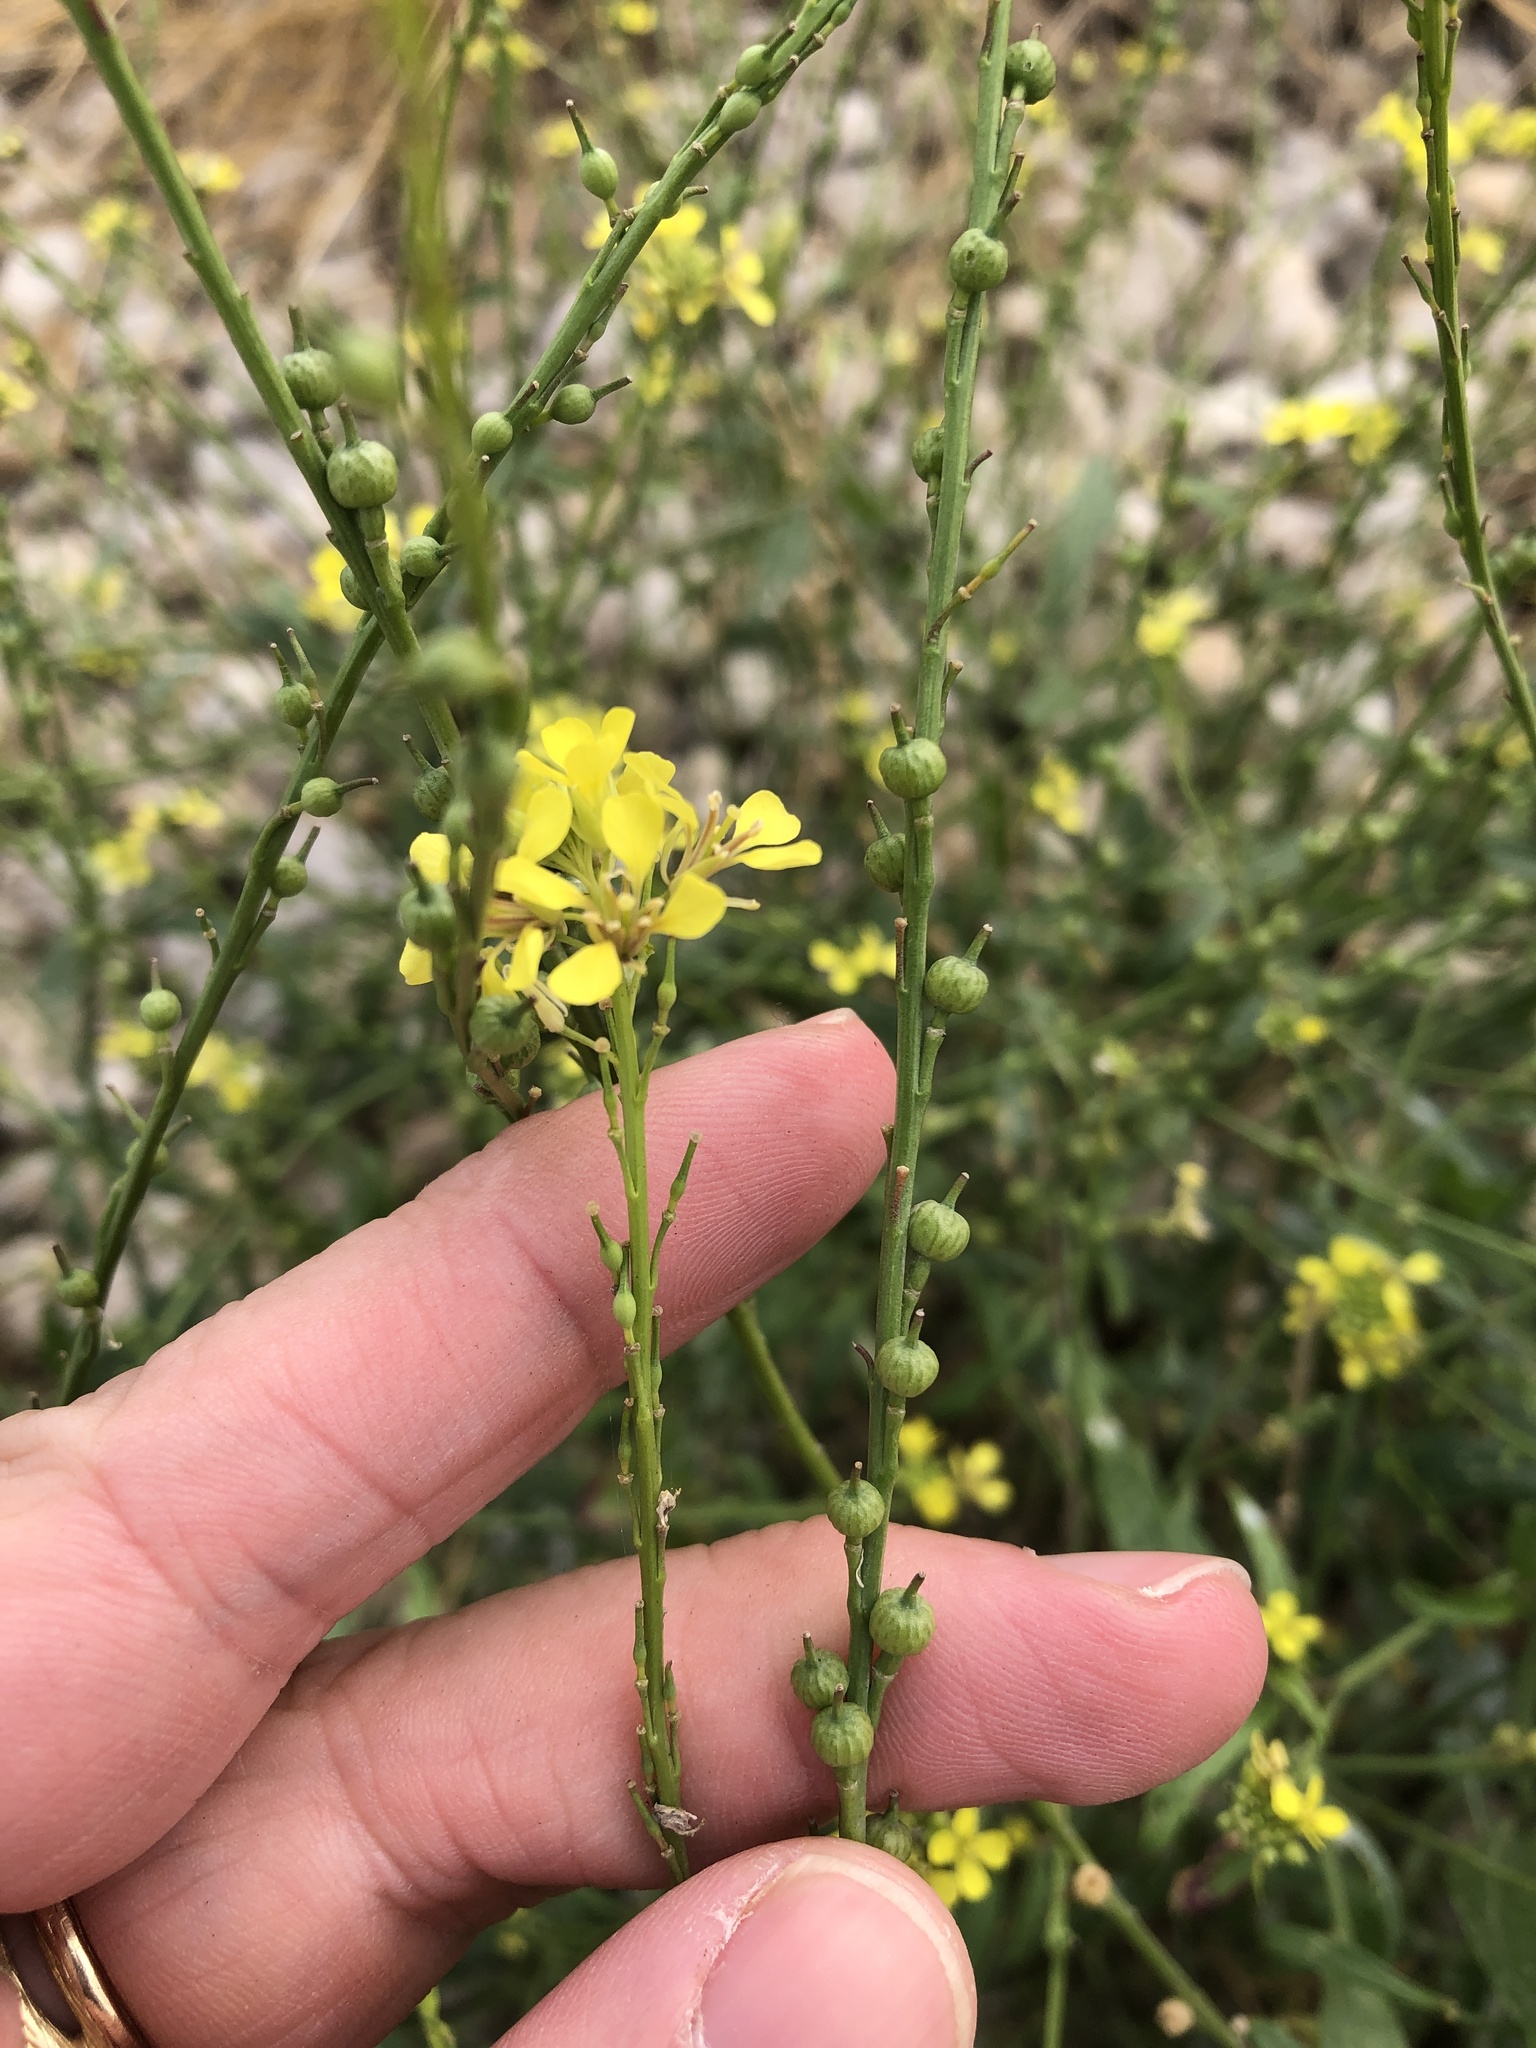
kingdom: Plantae
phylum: Tracheophyta
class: Magnoliopsida
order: Brassicales
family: Brassicaceae
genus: Rapistrum
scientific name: Rapistrum rugosum
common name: Annual bastardcabbage
